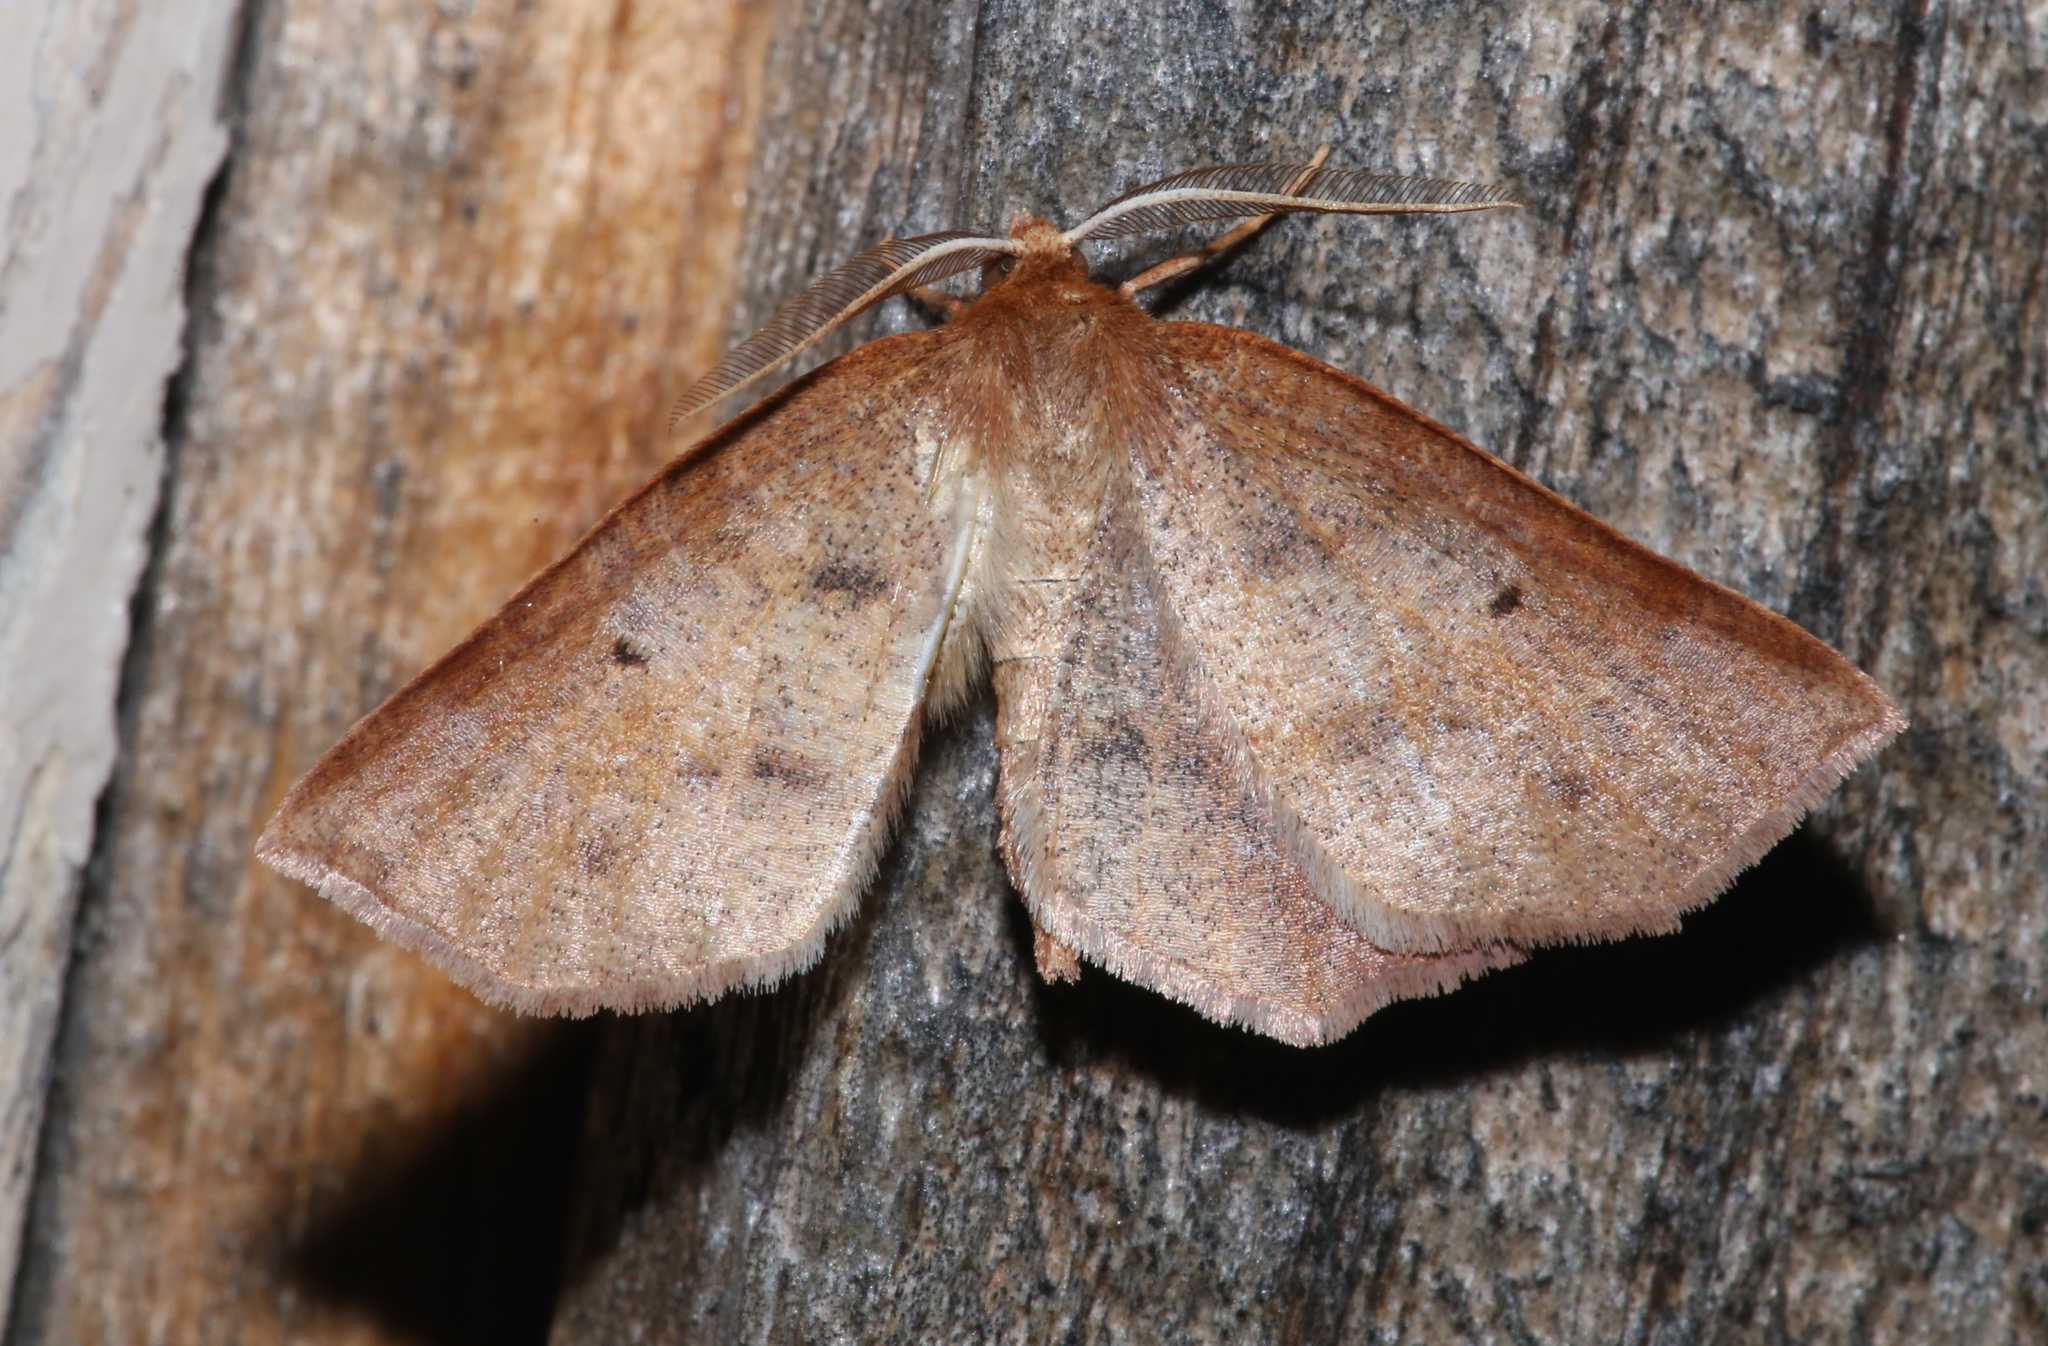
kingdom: Animalia
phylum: Arthropoda
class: Insecta
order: Lepidoptera
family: Geometridae
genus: Metarranthis
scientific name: Metarranthis duaria
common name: Ruddy metarranthis moth
